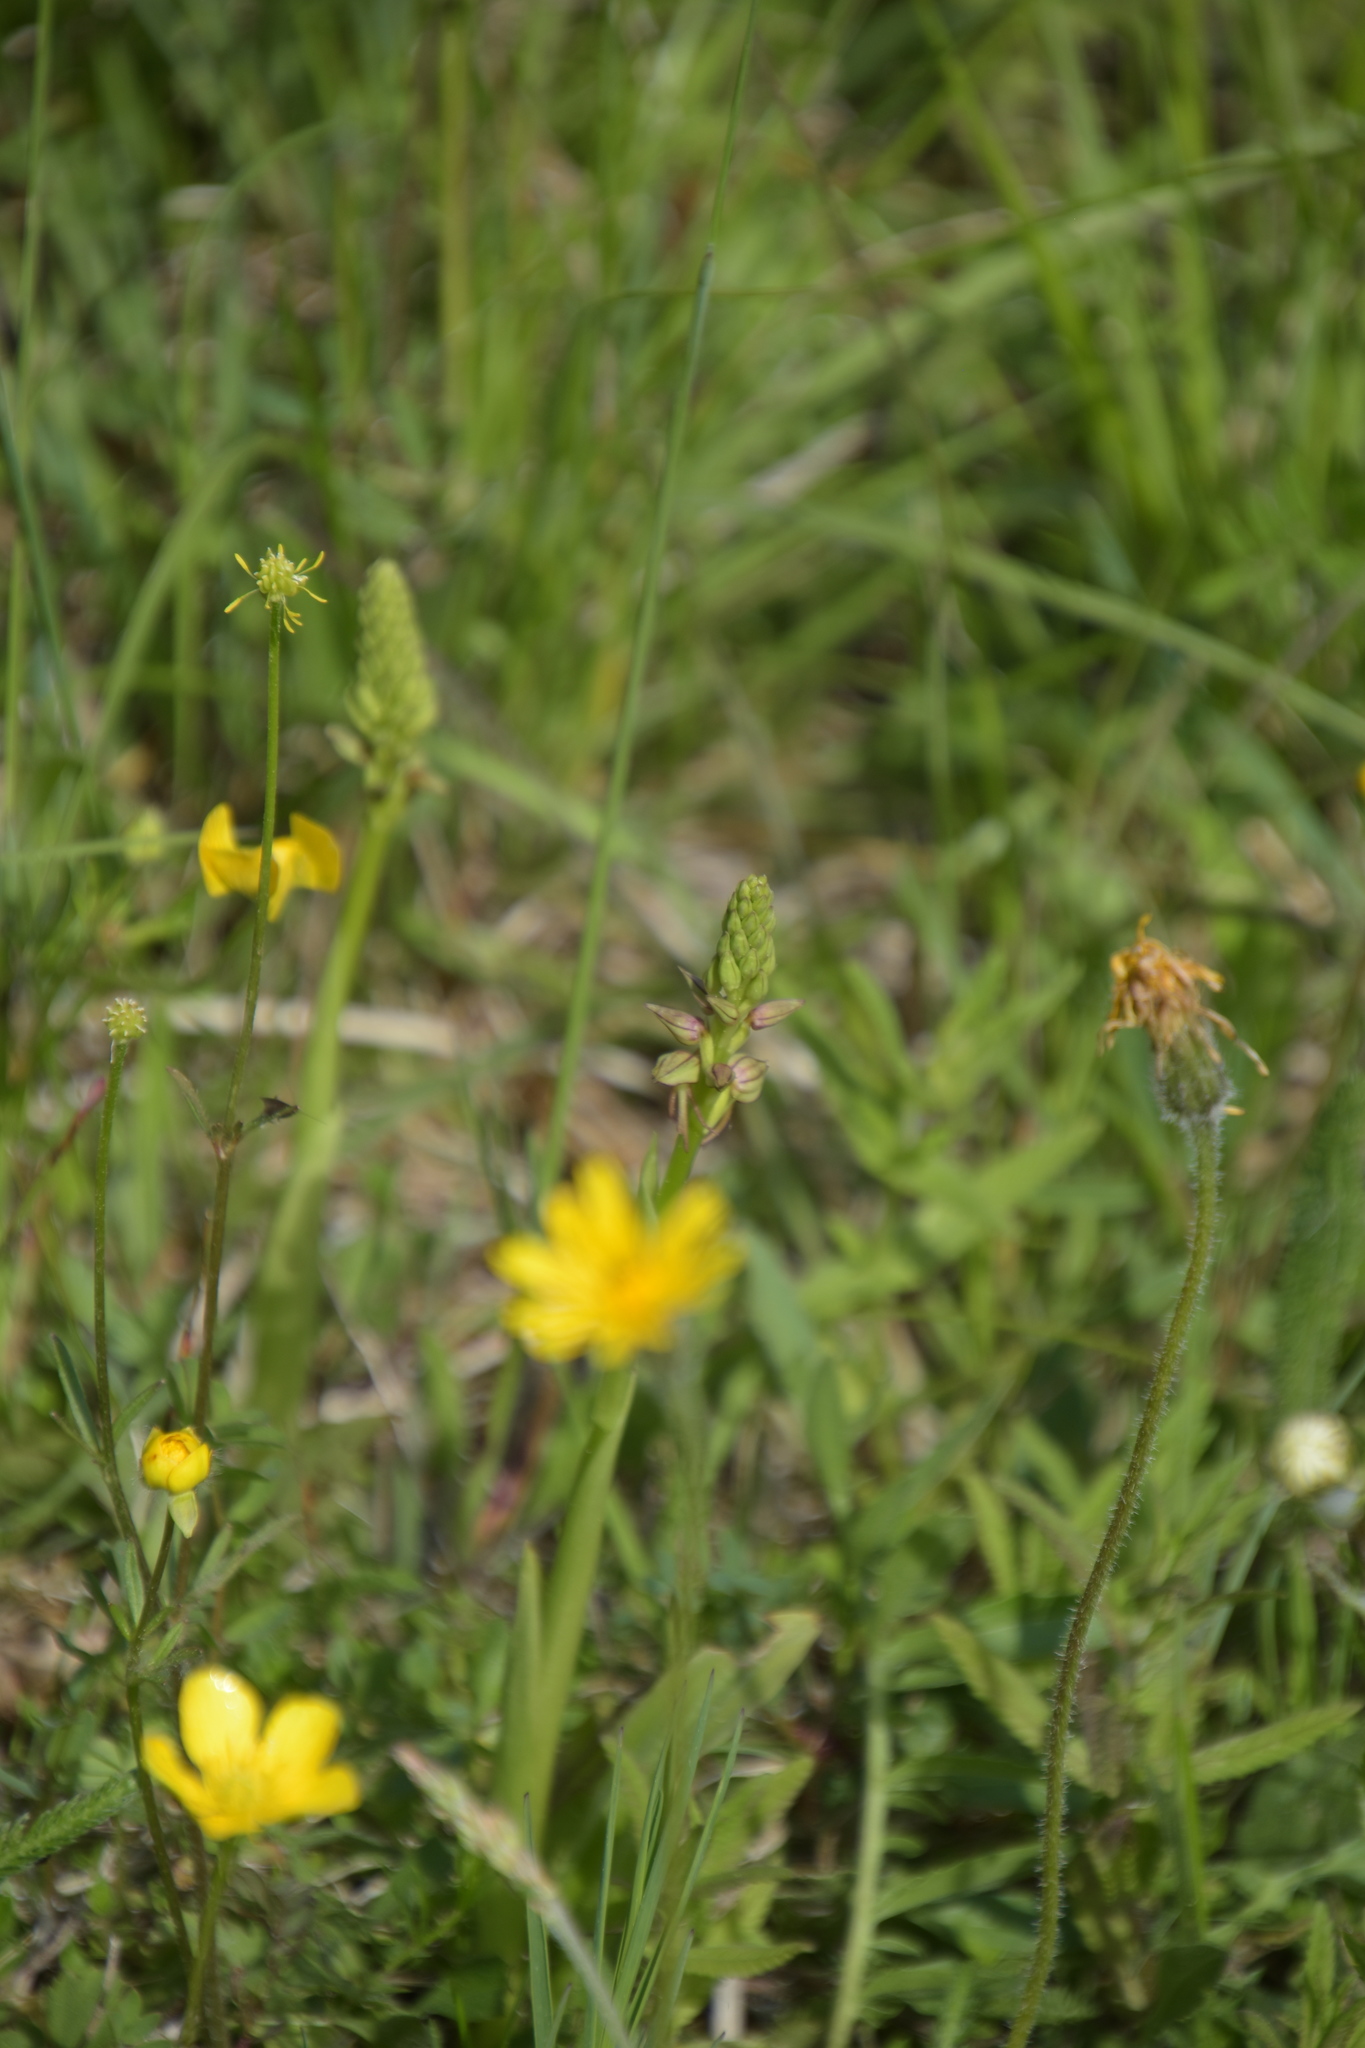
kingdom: Plantae
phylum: Tracheophyta
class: Liliopsida
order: Asparagales
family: Orchidaceae
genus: Orchis
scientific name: Orchis anthropophora
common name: Man orchid
